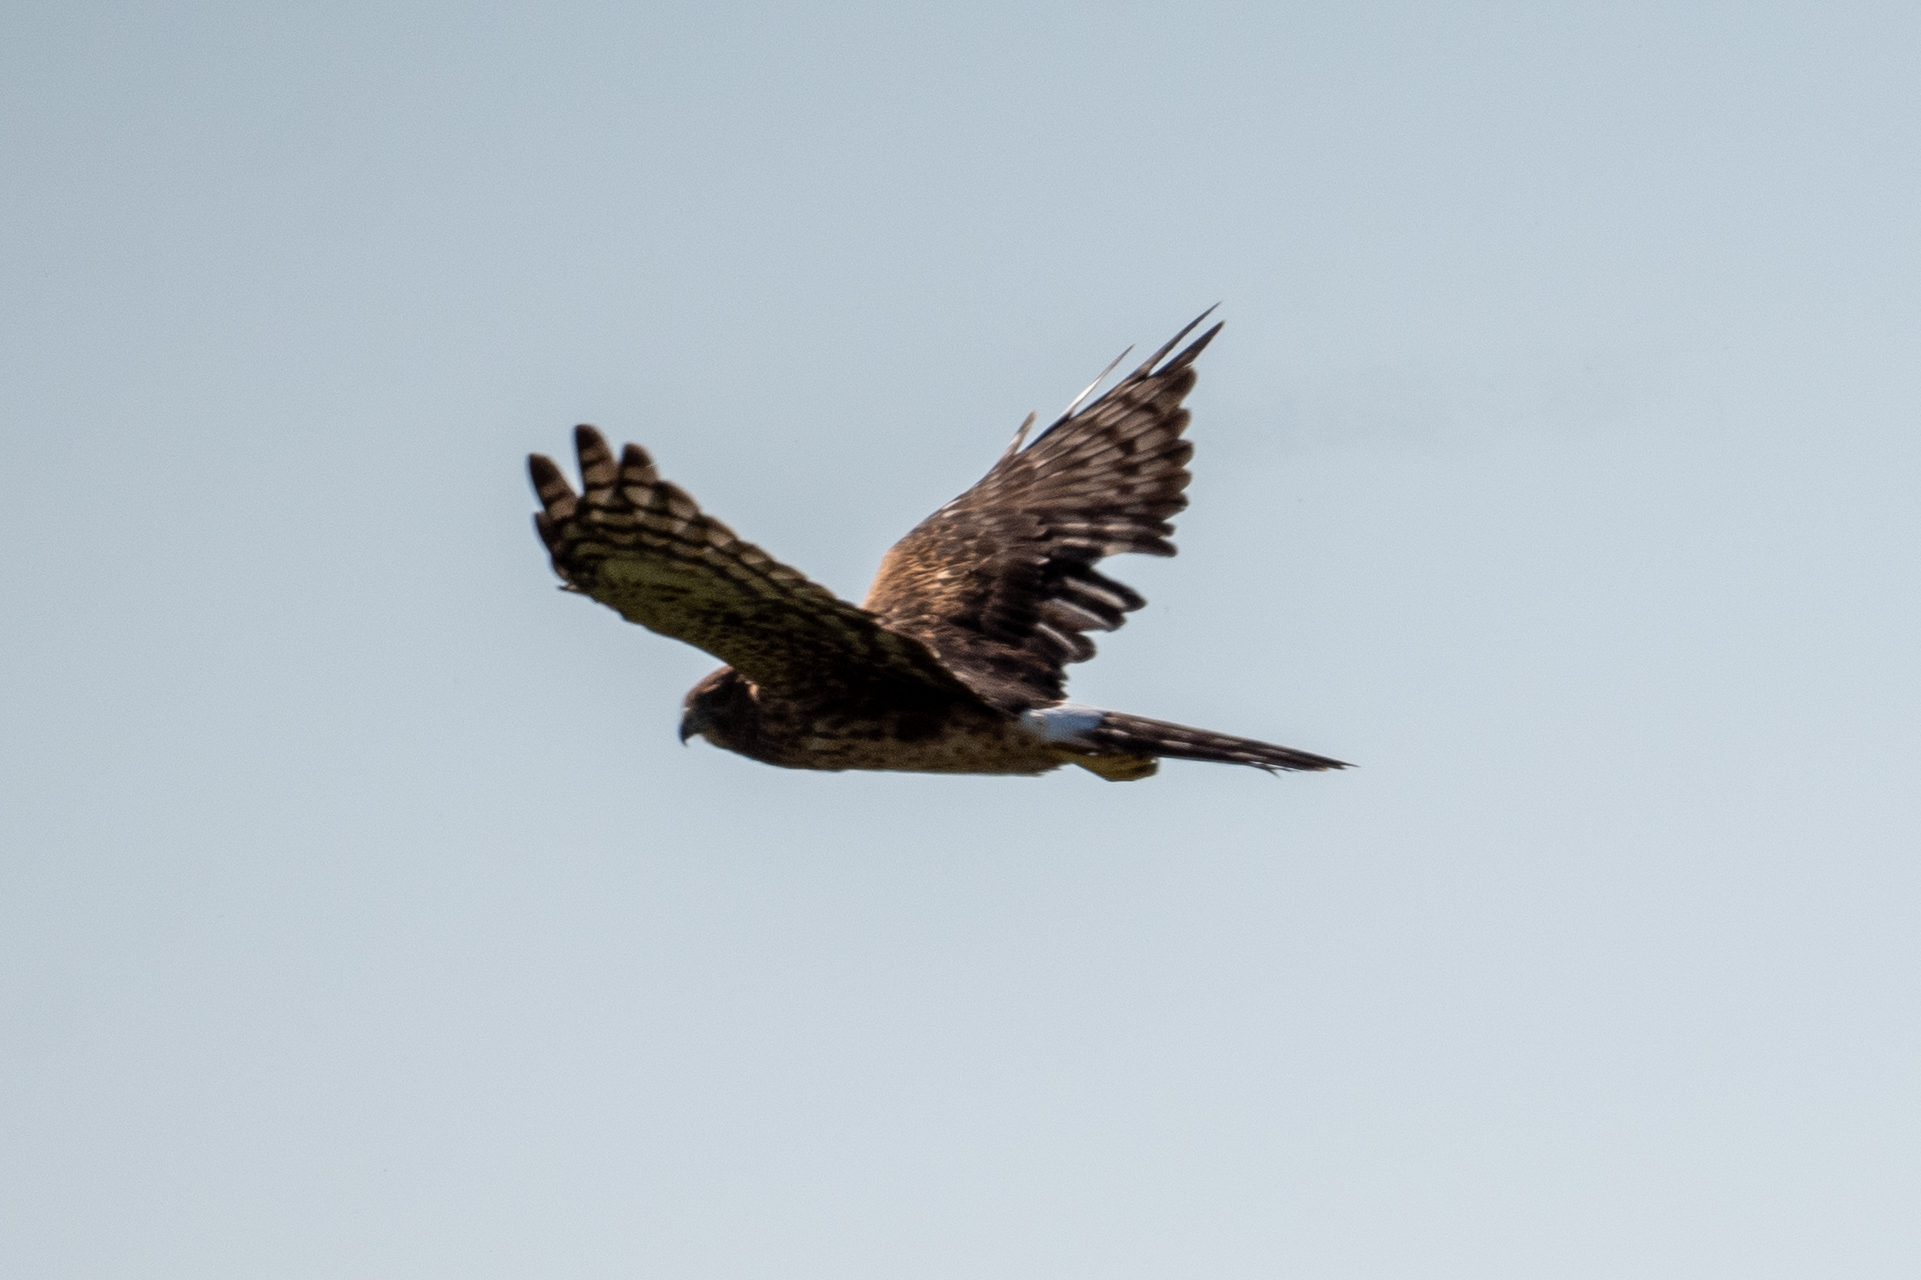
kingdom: Animalia
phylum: Chordata
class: Aves
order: Accipitriformes
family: Accipitridae
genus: Circus
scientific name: Circus cyaneus
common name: Hen harrier
